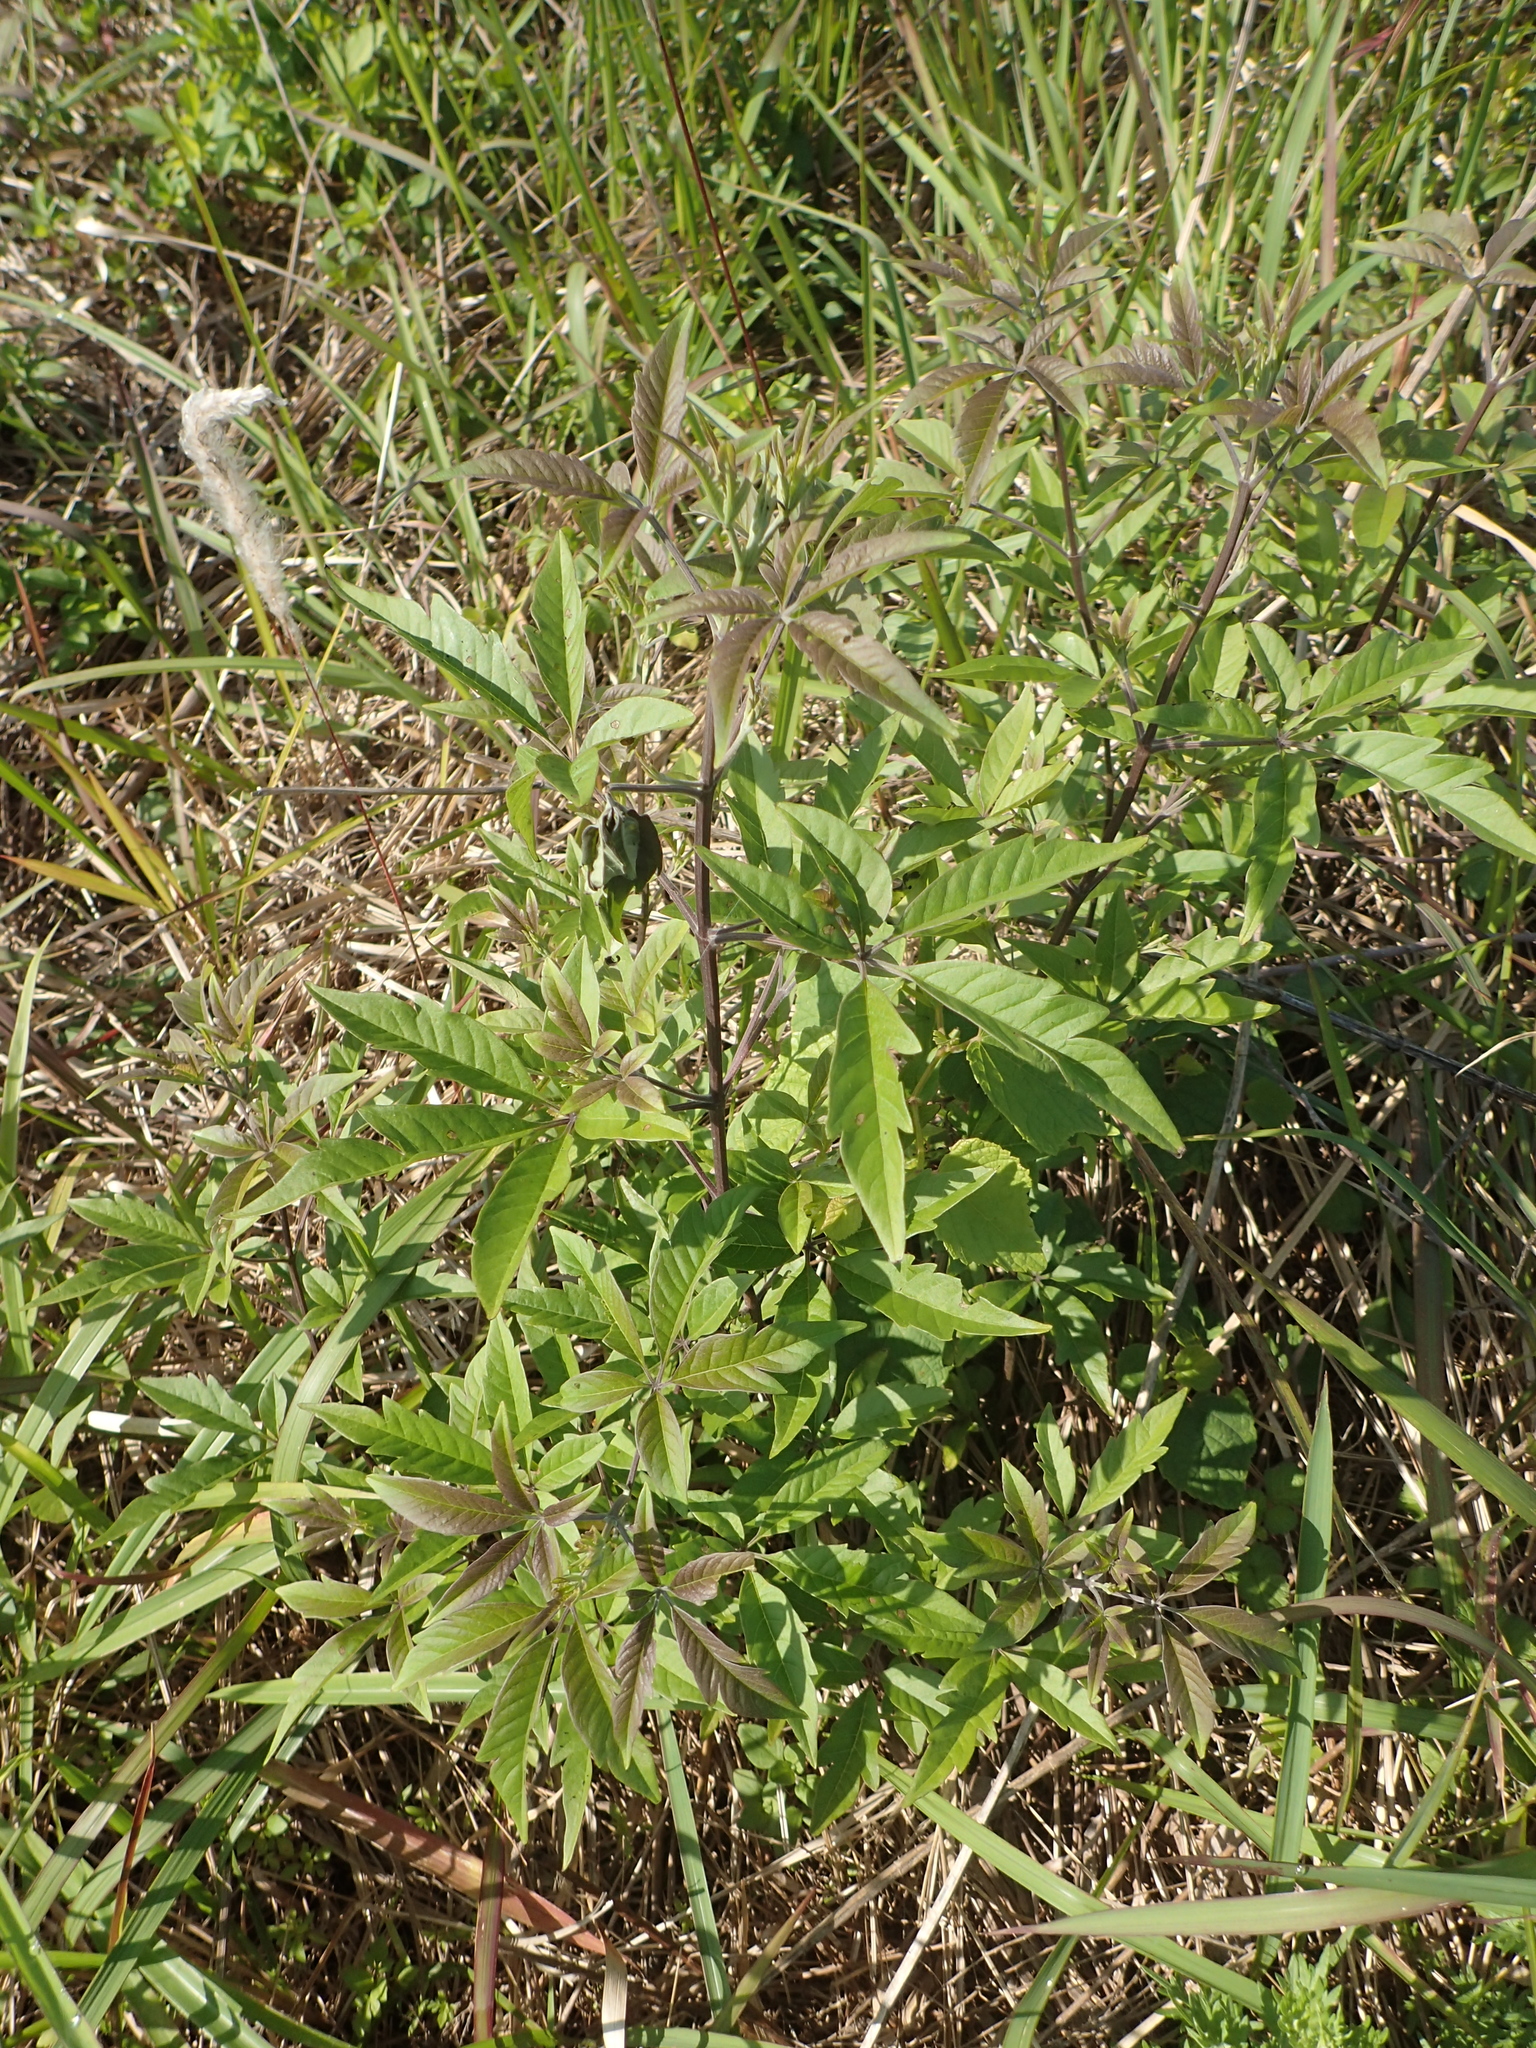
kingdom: Plantae
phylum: Tracheophyta
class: Magnoliopsida
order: Lamiales
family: Lamiaceae
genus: Vitex
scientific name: Vitex negundo
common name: Chinese chastetree
